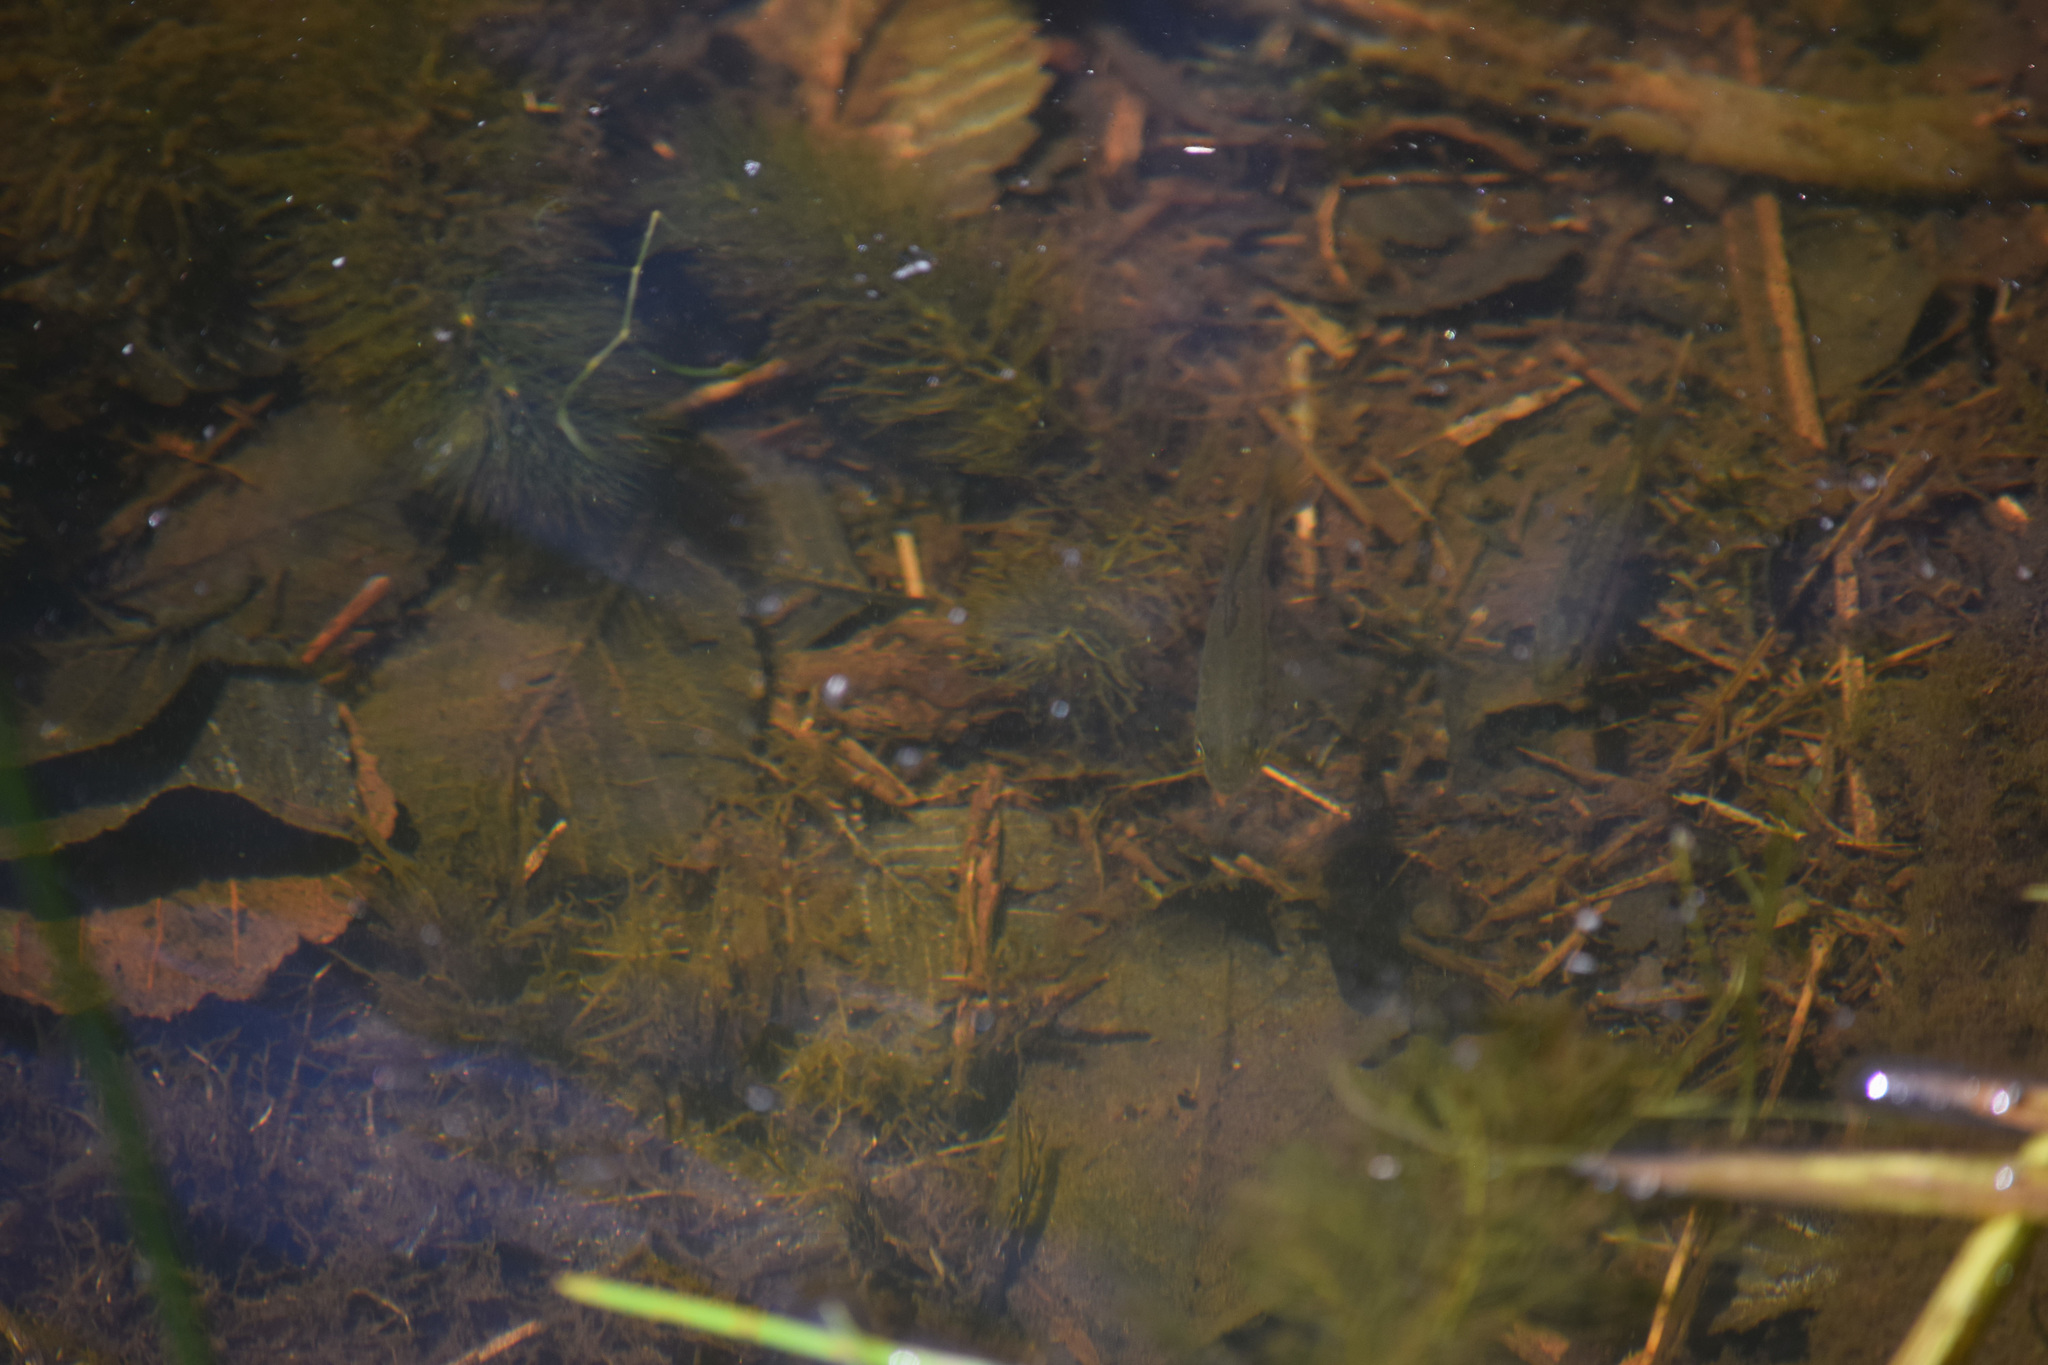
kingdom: Animalia
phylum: Chordata
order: Perciformes
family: Centrarchidae
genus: Micropterus
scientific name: Micropterus
